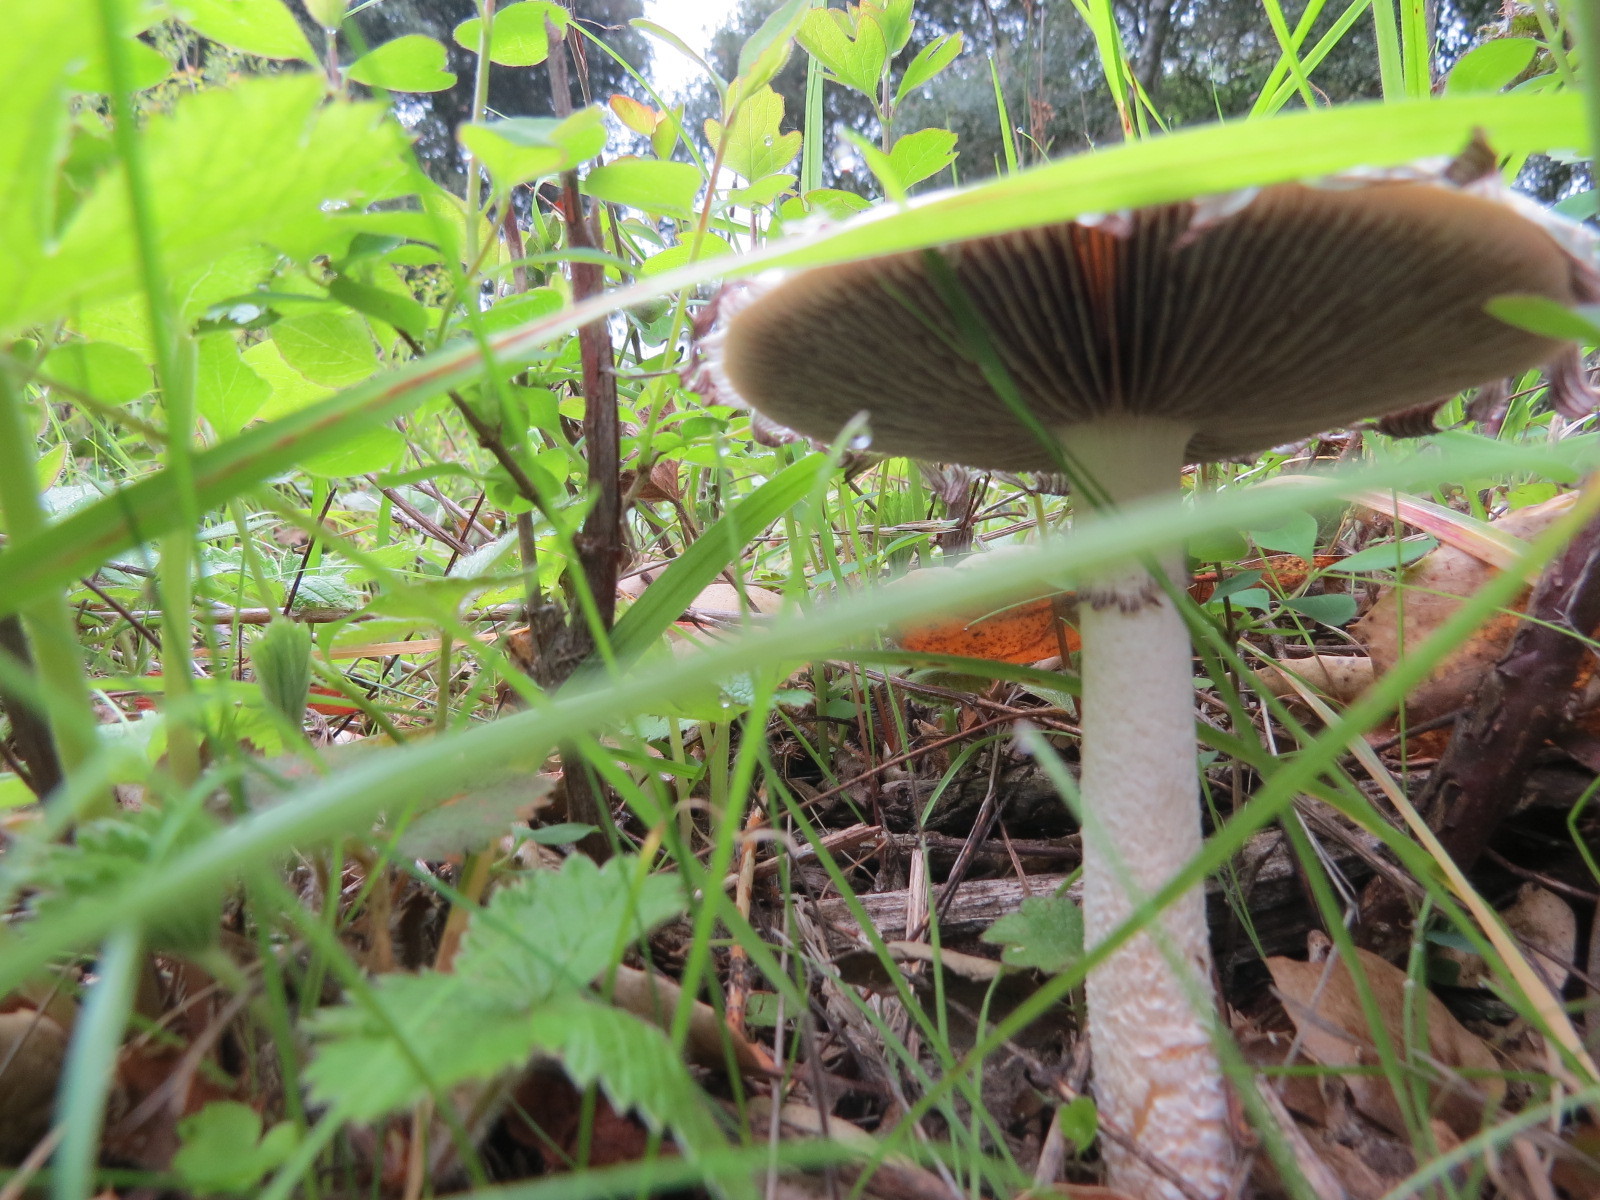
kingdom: Fungi
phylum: Basidiomycota
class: Agaricomycetes
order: Agaricales
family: Strophariaceae
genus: Stropharia
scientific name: Stropharia ambigua
